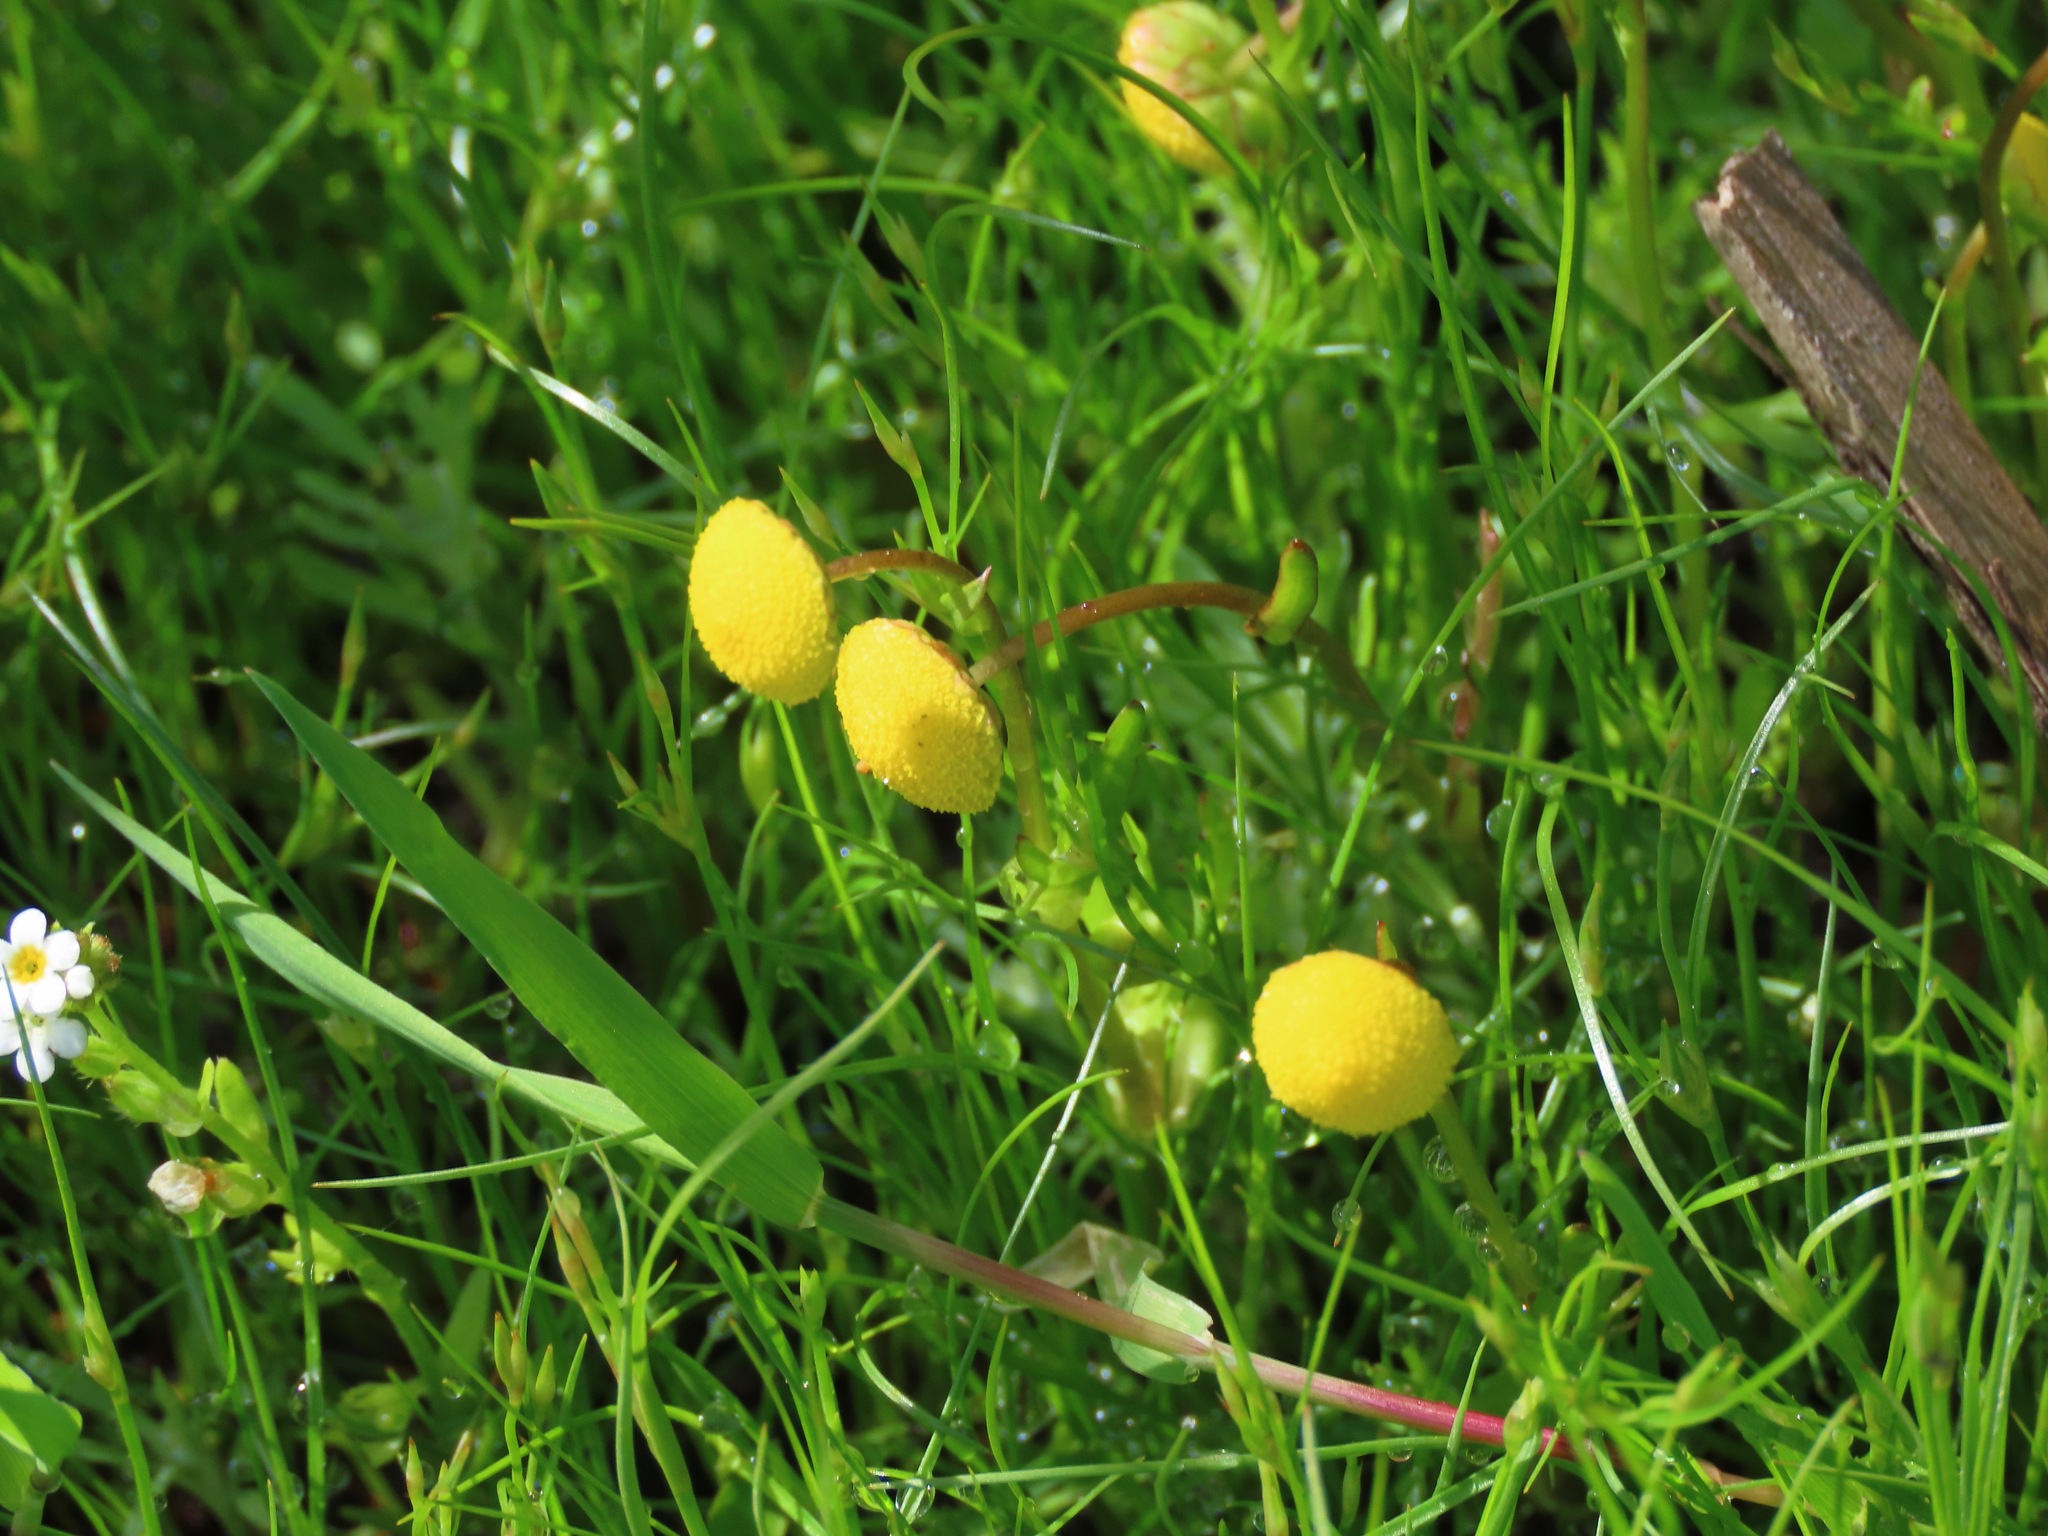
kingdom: Plantae
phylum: Tracheophyta
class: Magnoliopsida
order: Asterales
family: Asteraceae
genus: Cotula
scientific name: Cotula coronopifolia
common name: Buttonweed
